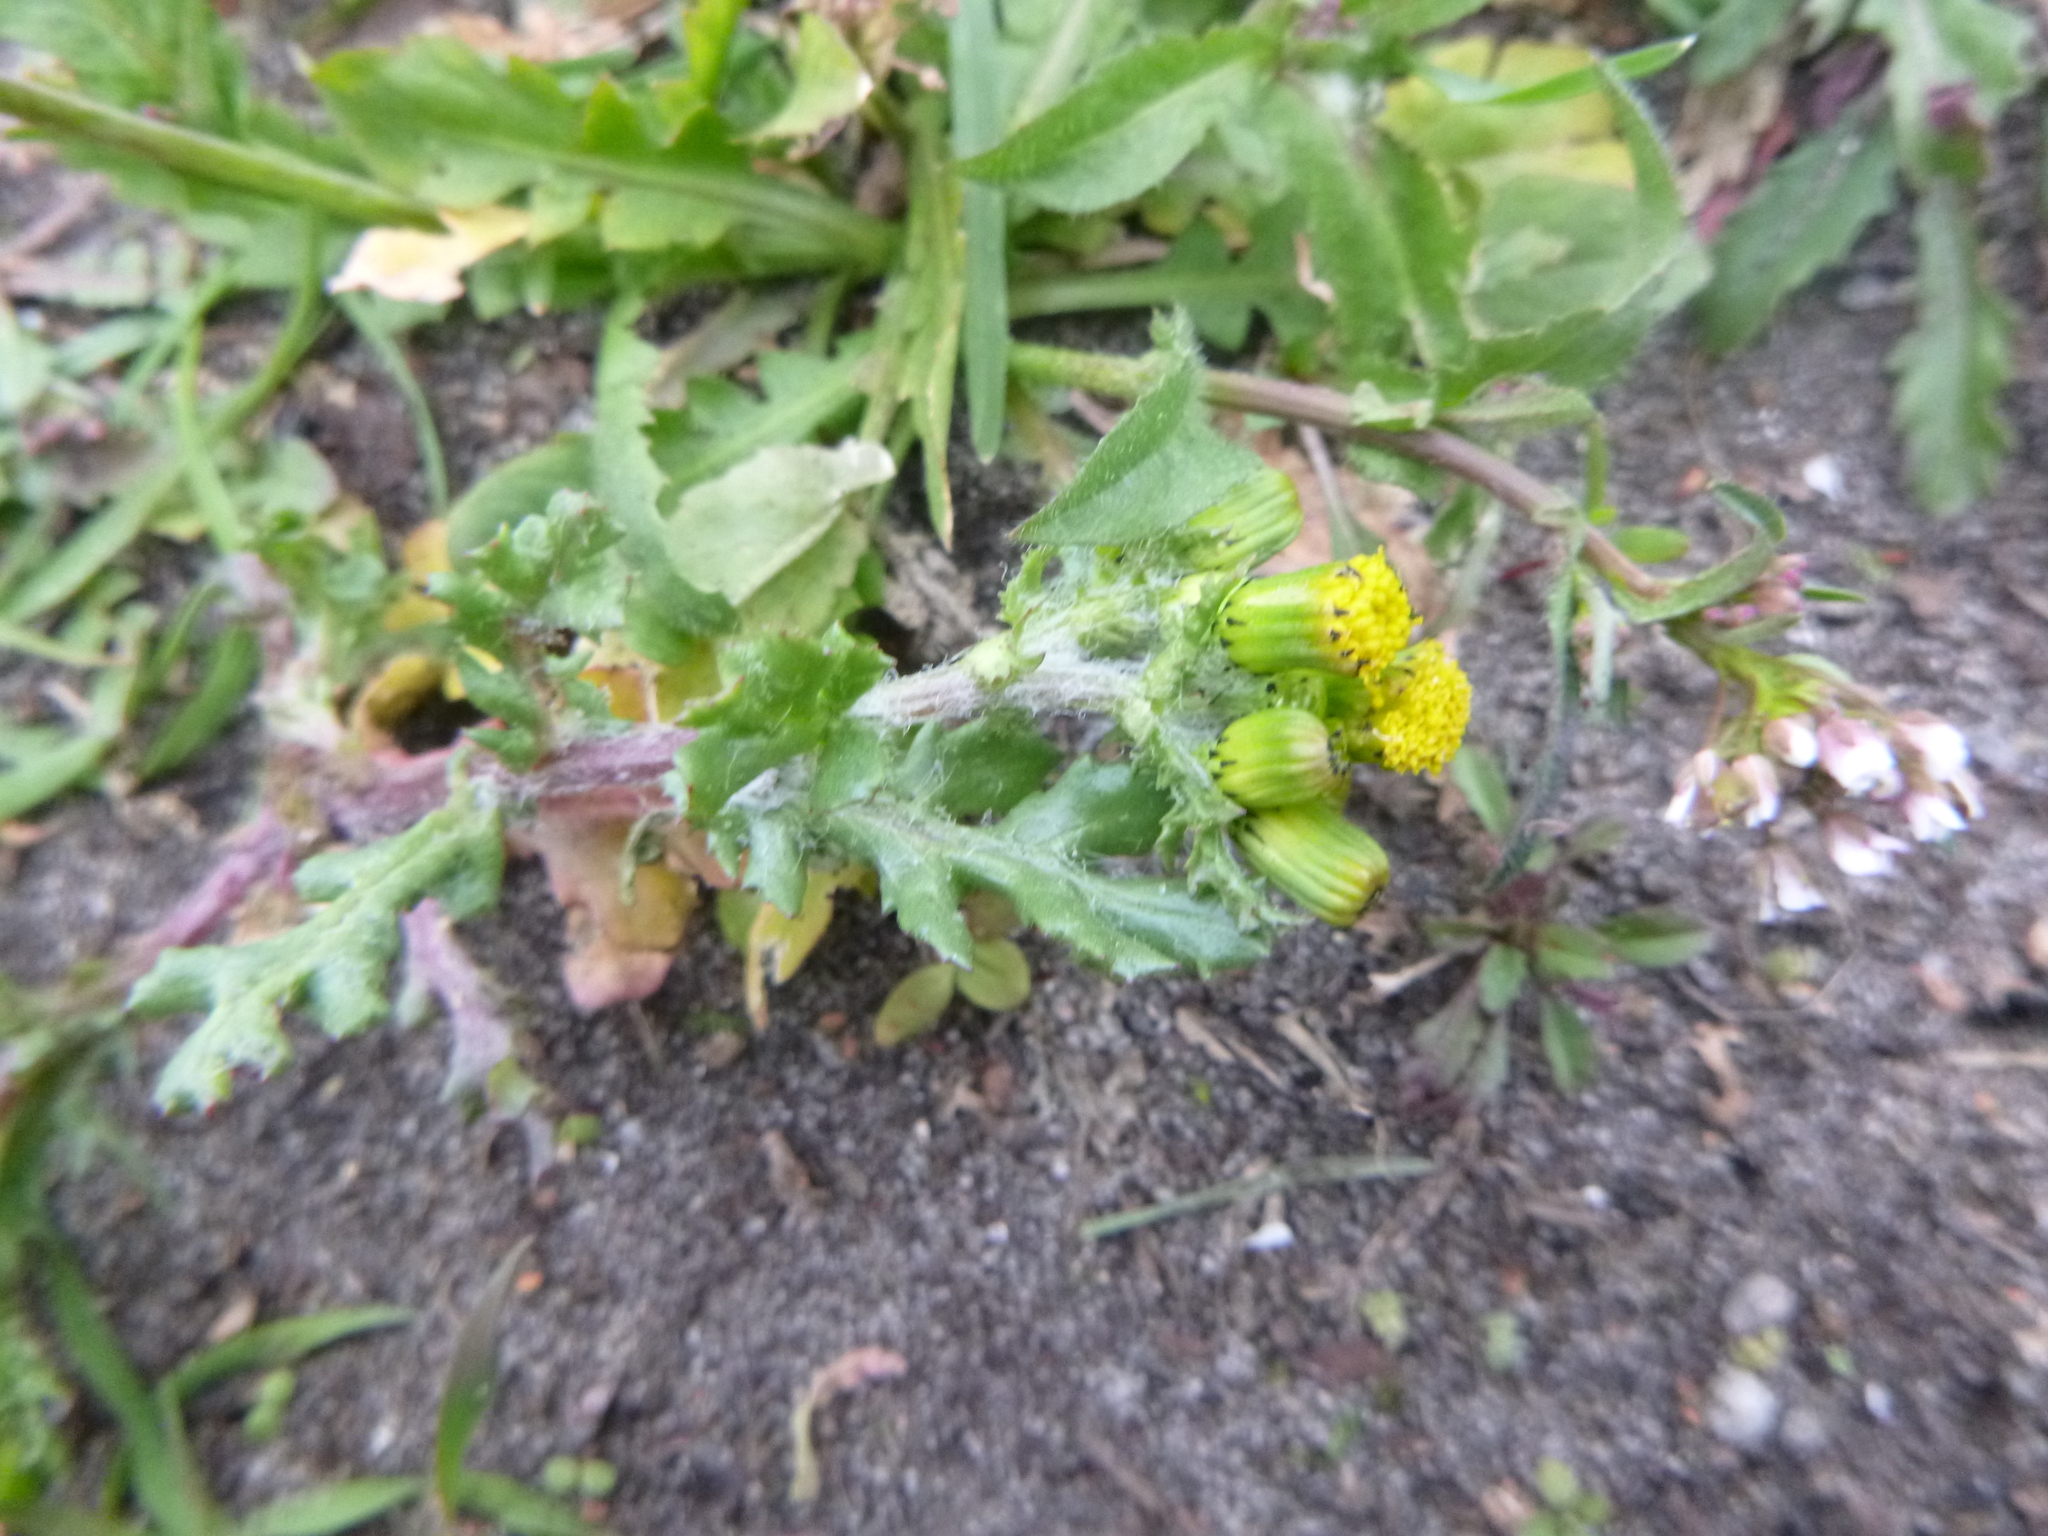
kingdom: Plantae
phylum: Tracheophyta
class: Magnoliopsida
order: Asterales
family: Asteraceae
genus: Senecio
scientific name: Senecio vulgaris
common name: Old-man-in-the-spring
